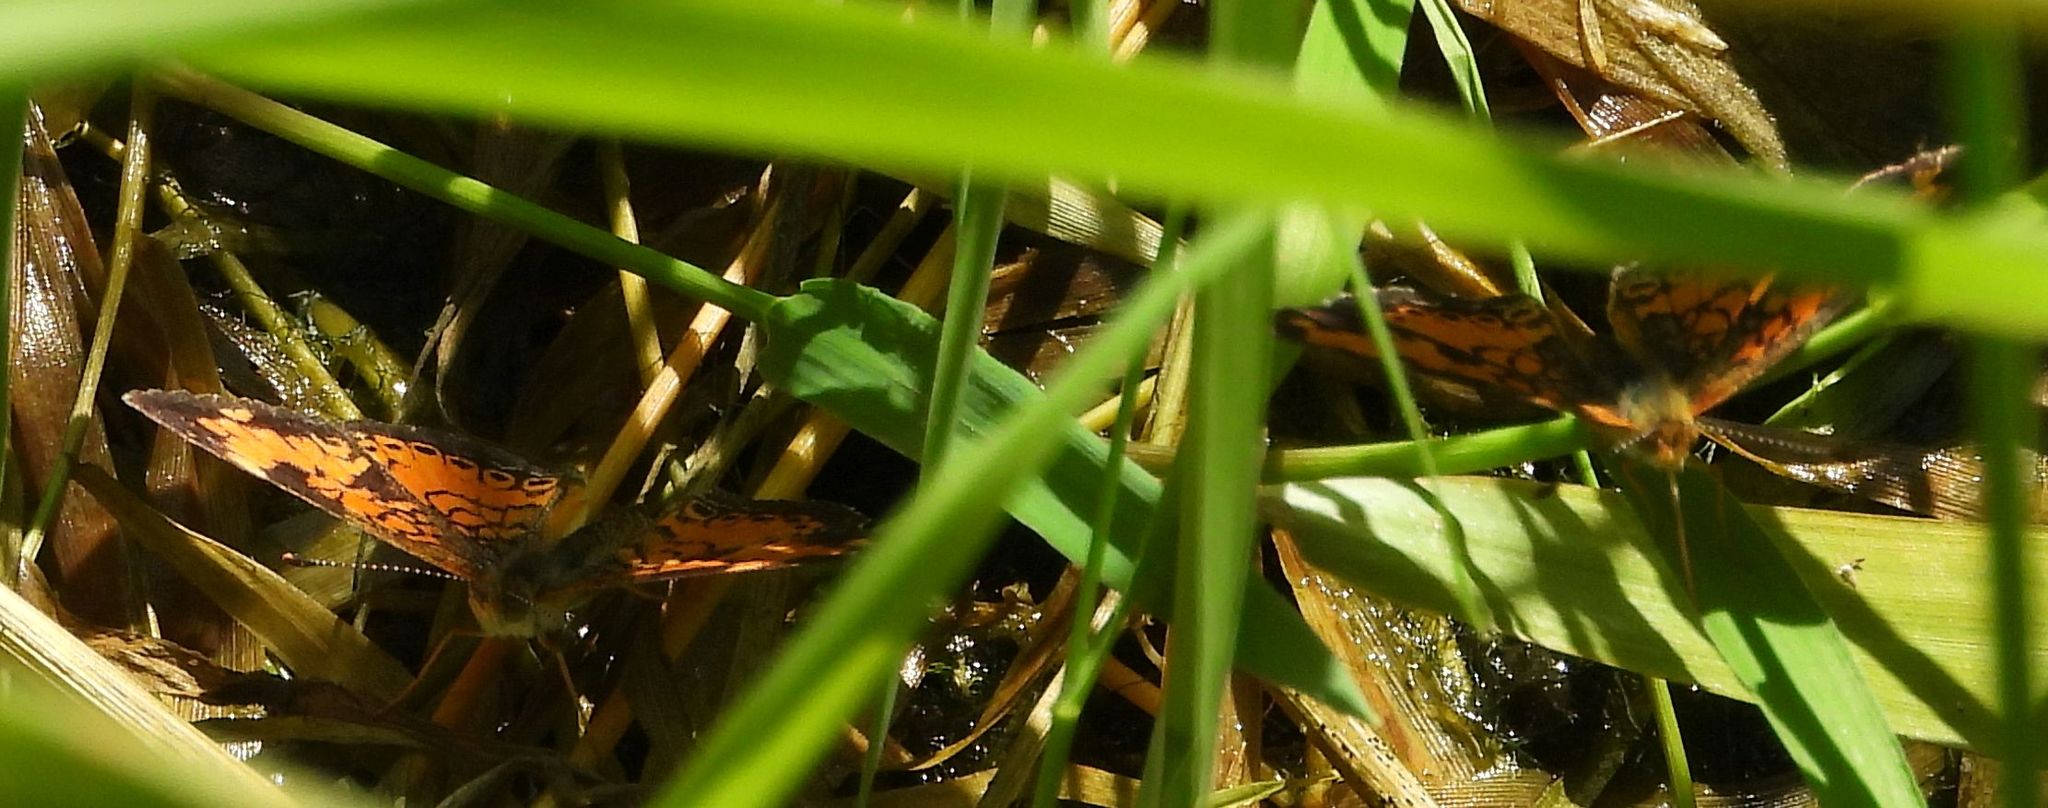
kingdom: Animalia
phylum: Arthropoda
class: Insecta
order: Lepidoptera
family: Nymphalidae
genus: Phyciodes
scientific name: Phyciodes tharos
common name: Pearl crescent
